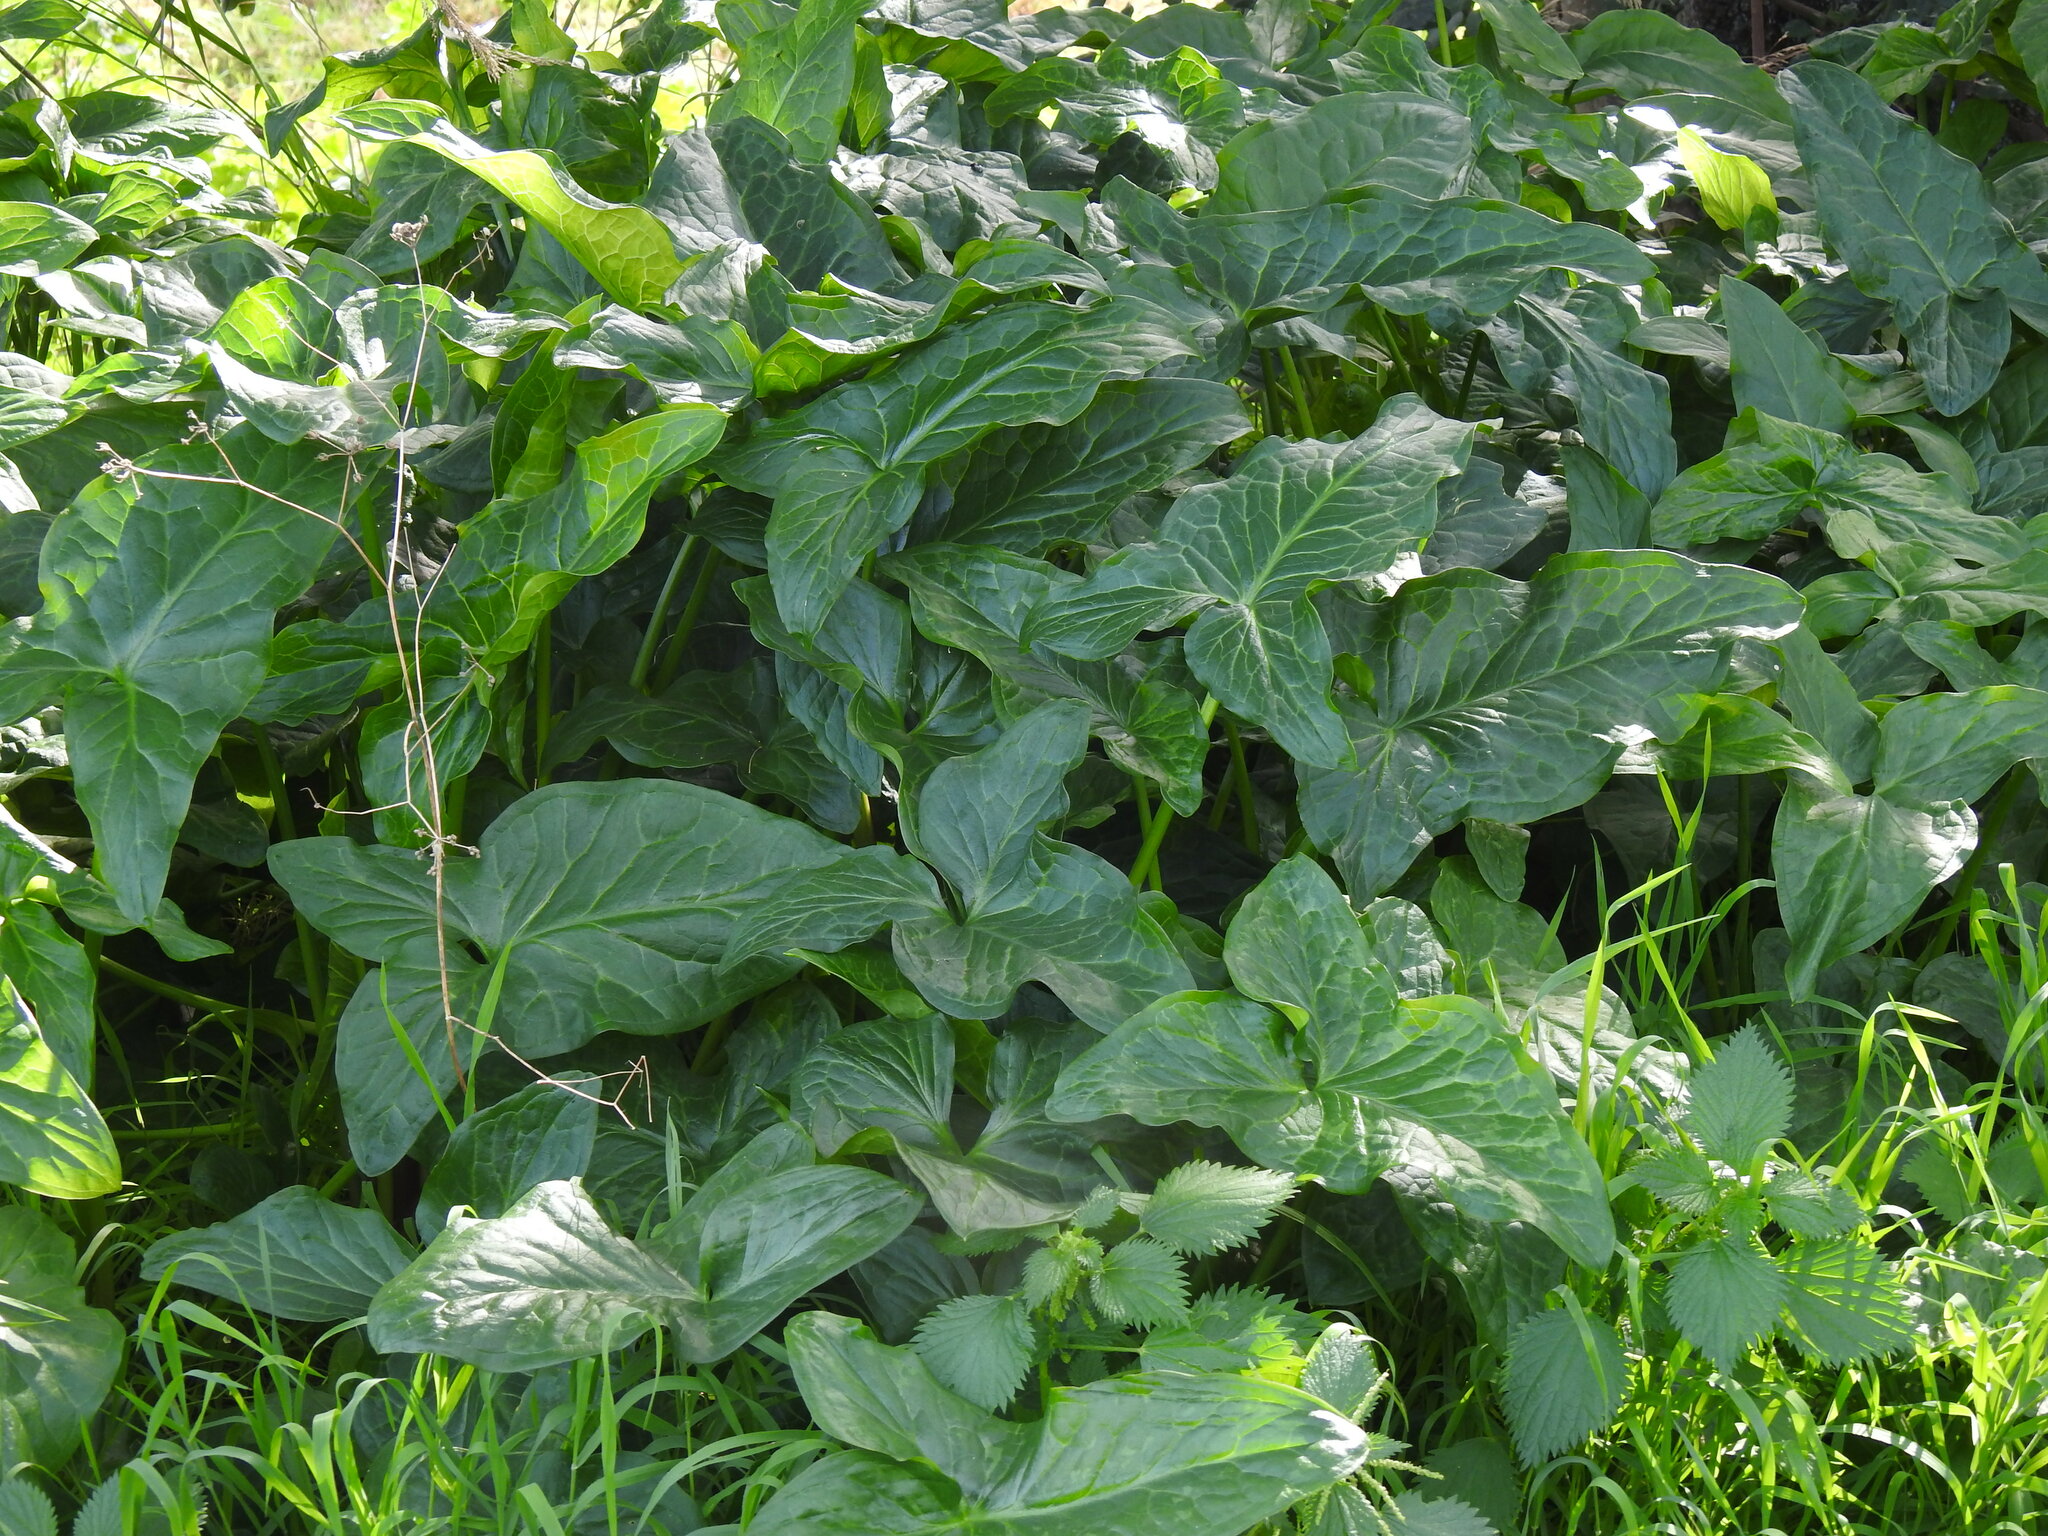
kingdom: Plantae
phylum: Tracheophyta
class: Liliopsida
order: Alismatales
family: Araceae
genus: Arum
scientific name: Arum italicum
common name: Italian lords-and-ladies
